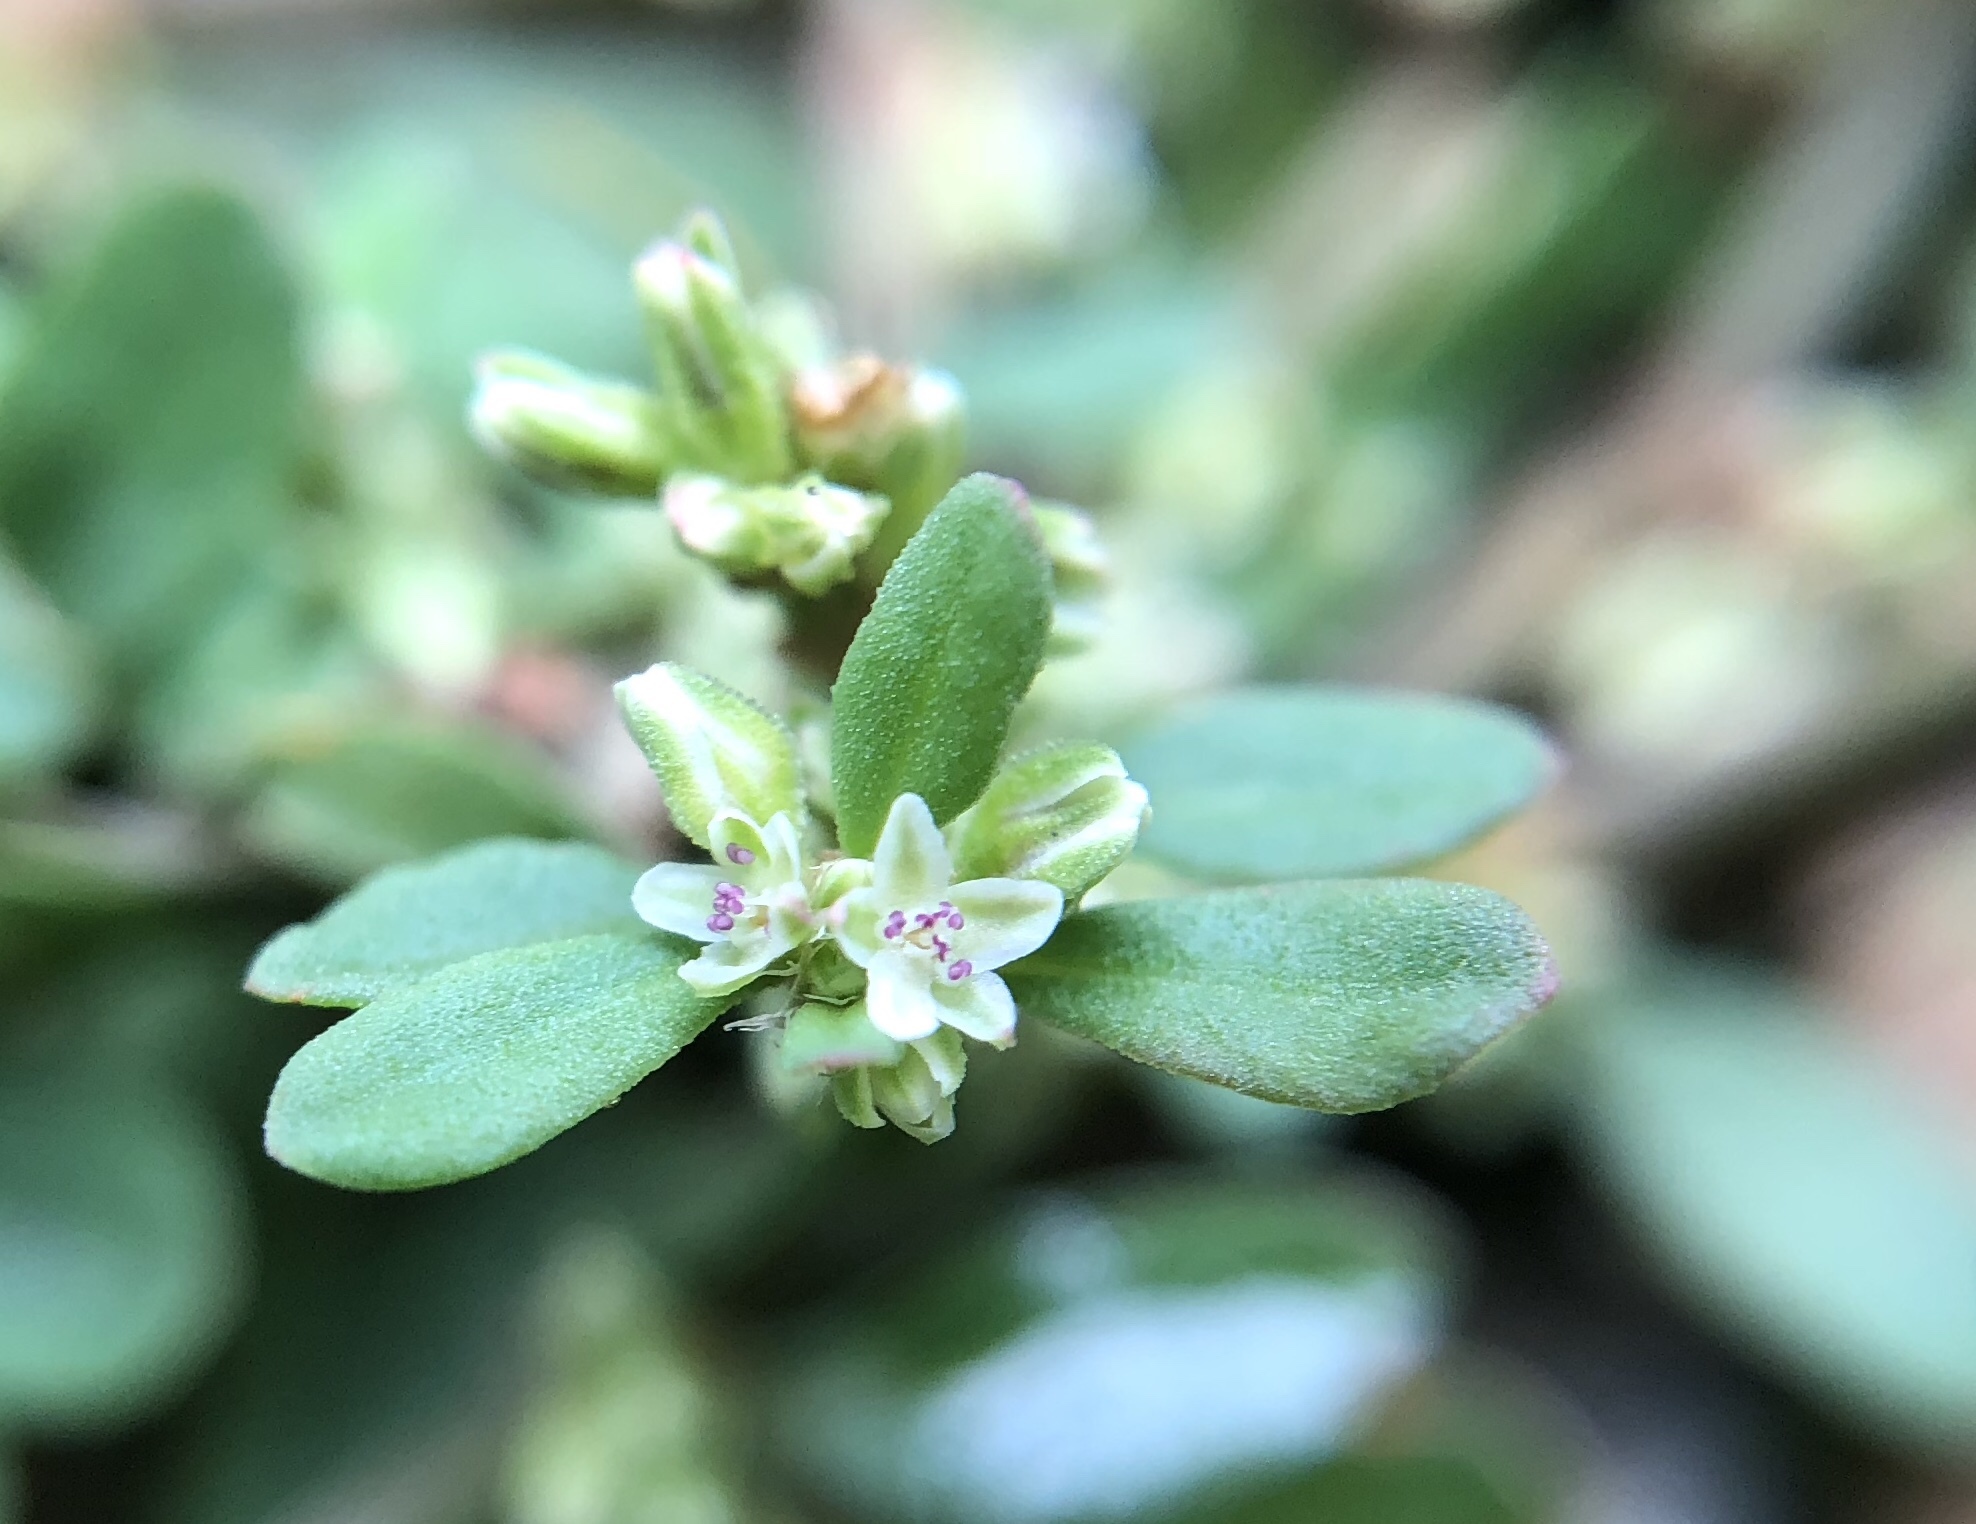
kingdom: Plantae
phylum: Tracheophyta
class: Magnoliopsida
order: Caryophyllales
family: Polygonaceae
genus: Polygonum
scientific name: Polygonum plebeium
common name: Common knotweed
